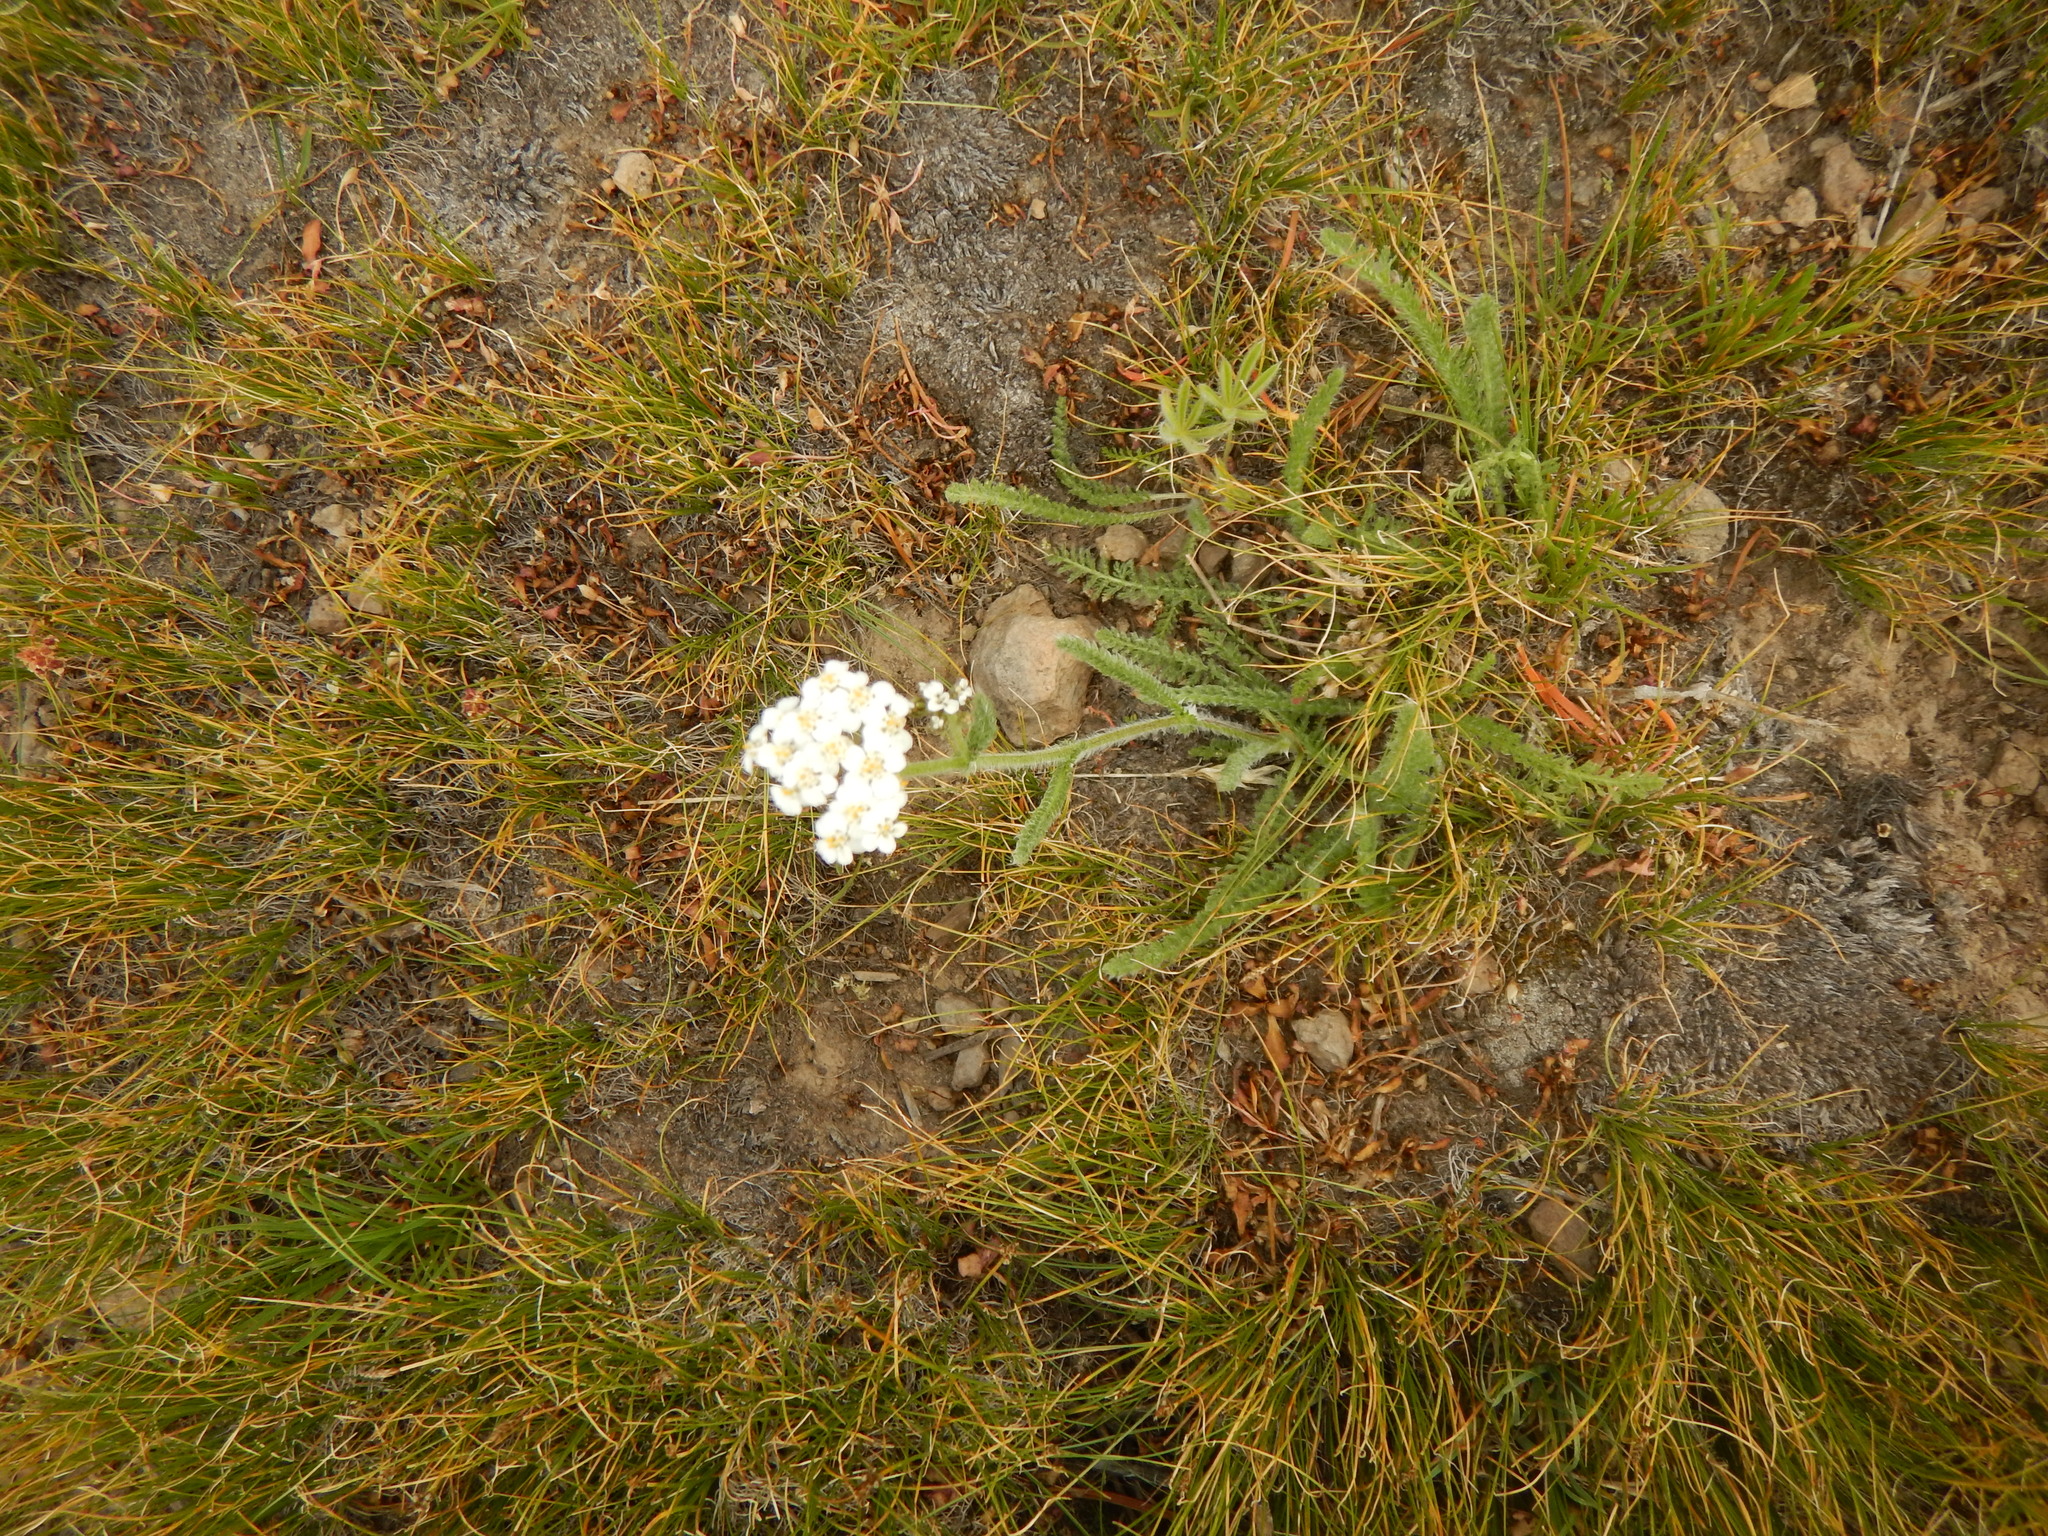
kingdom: Plantae
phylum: Tracheophyta
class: Magnoliopsida
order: Asterales
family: Asteraceae
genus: Achillea
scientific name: Achillea millefolium
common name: Yarrow
